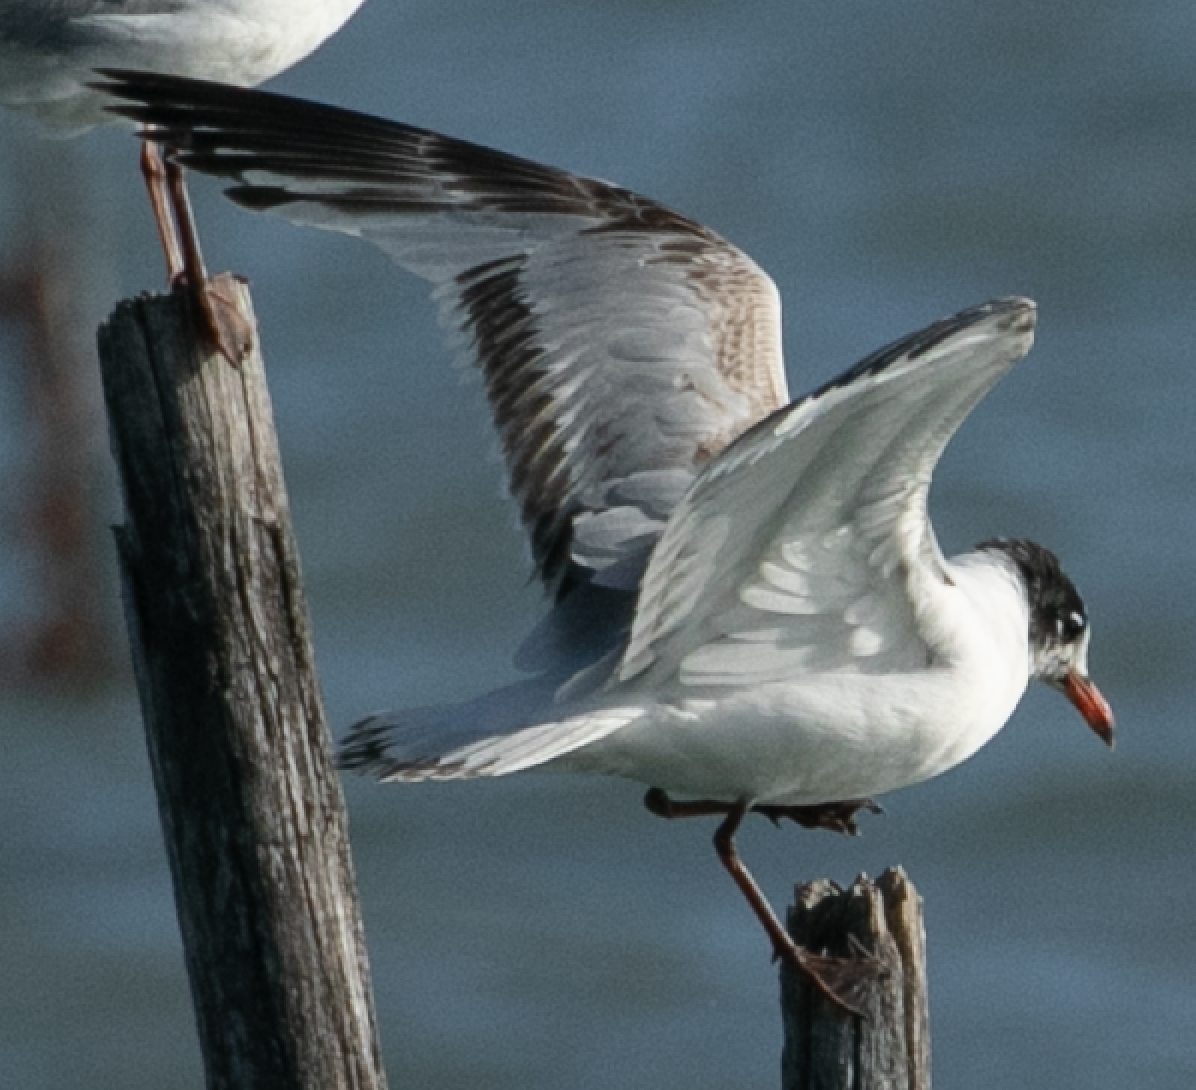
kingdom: Animalia
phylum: Chordata
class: Aves
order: Charadriiformes
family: Laridae
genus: Ichthyaetus
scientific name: Ichthyaetus melanocephalus
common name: Mediterranean gull
